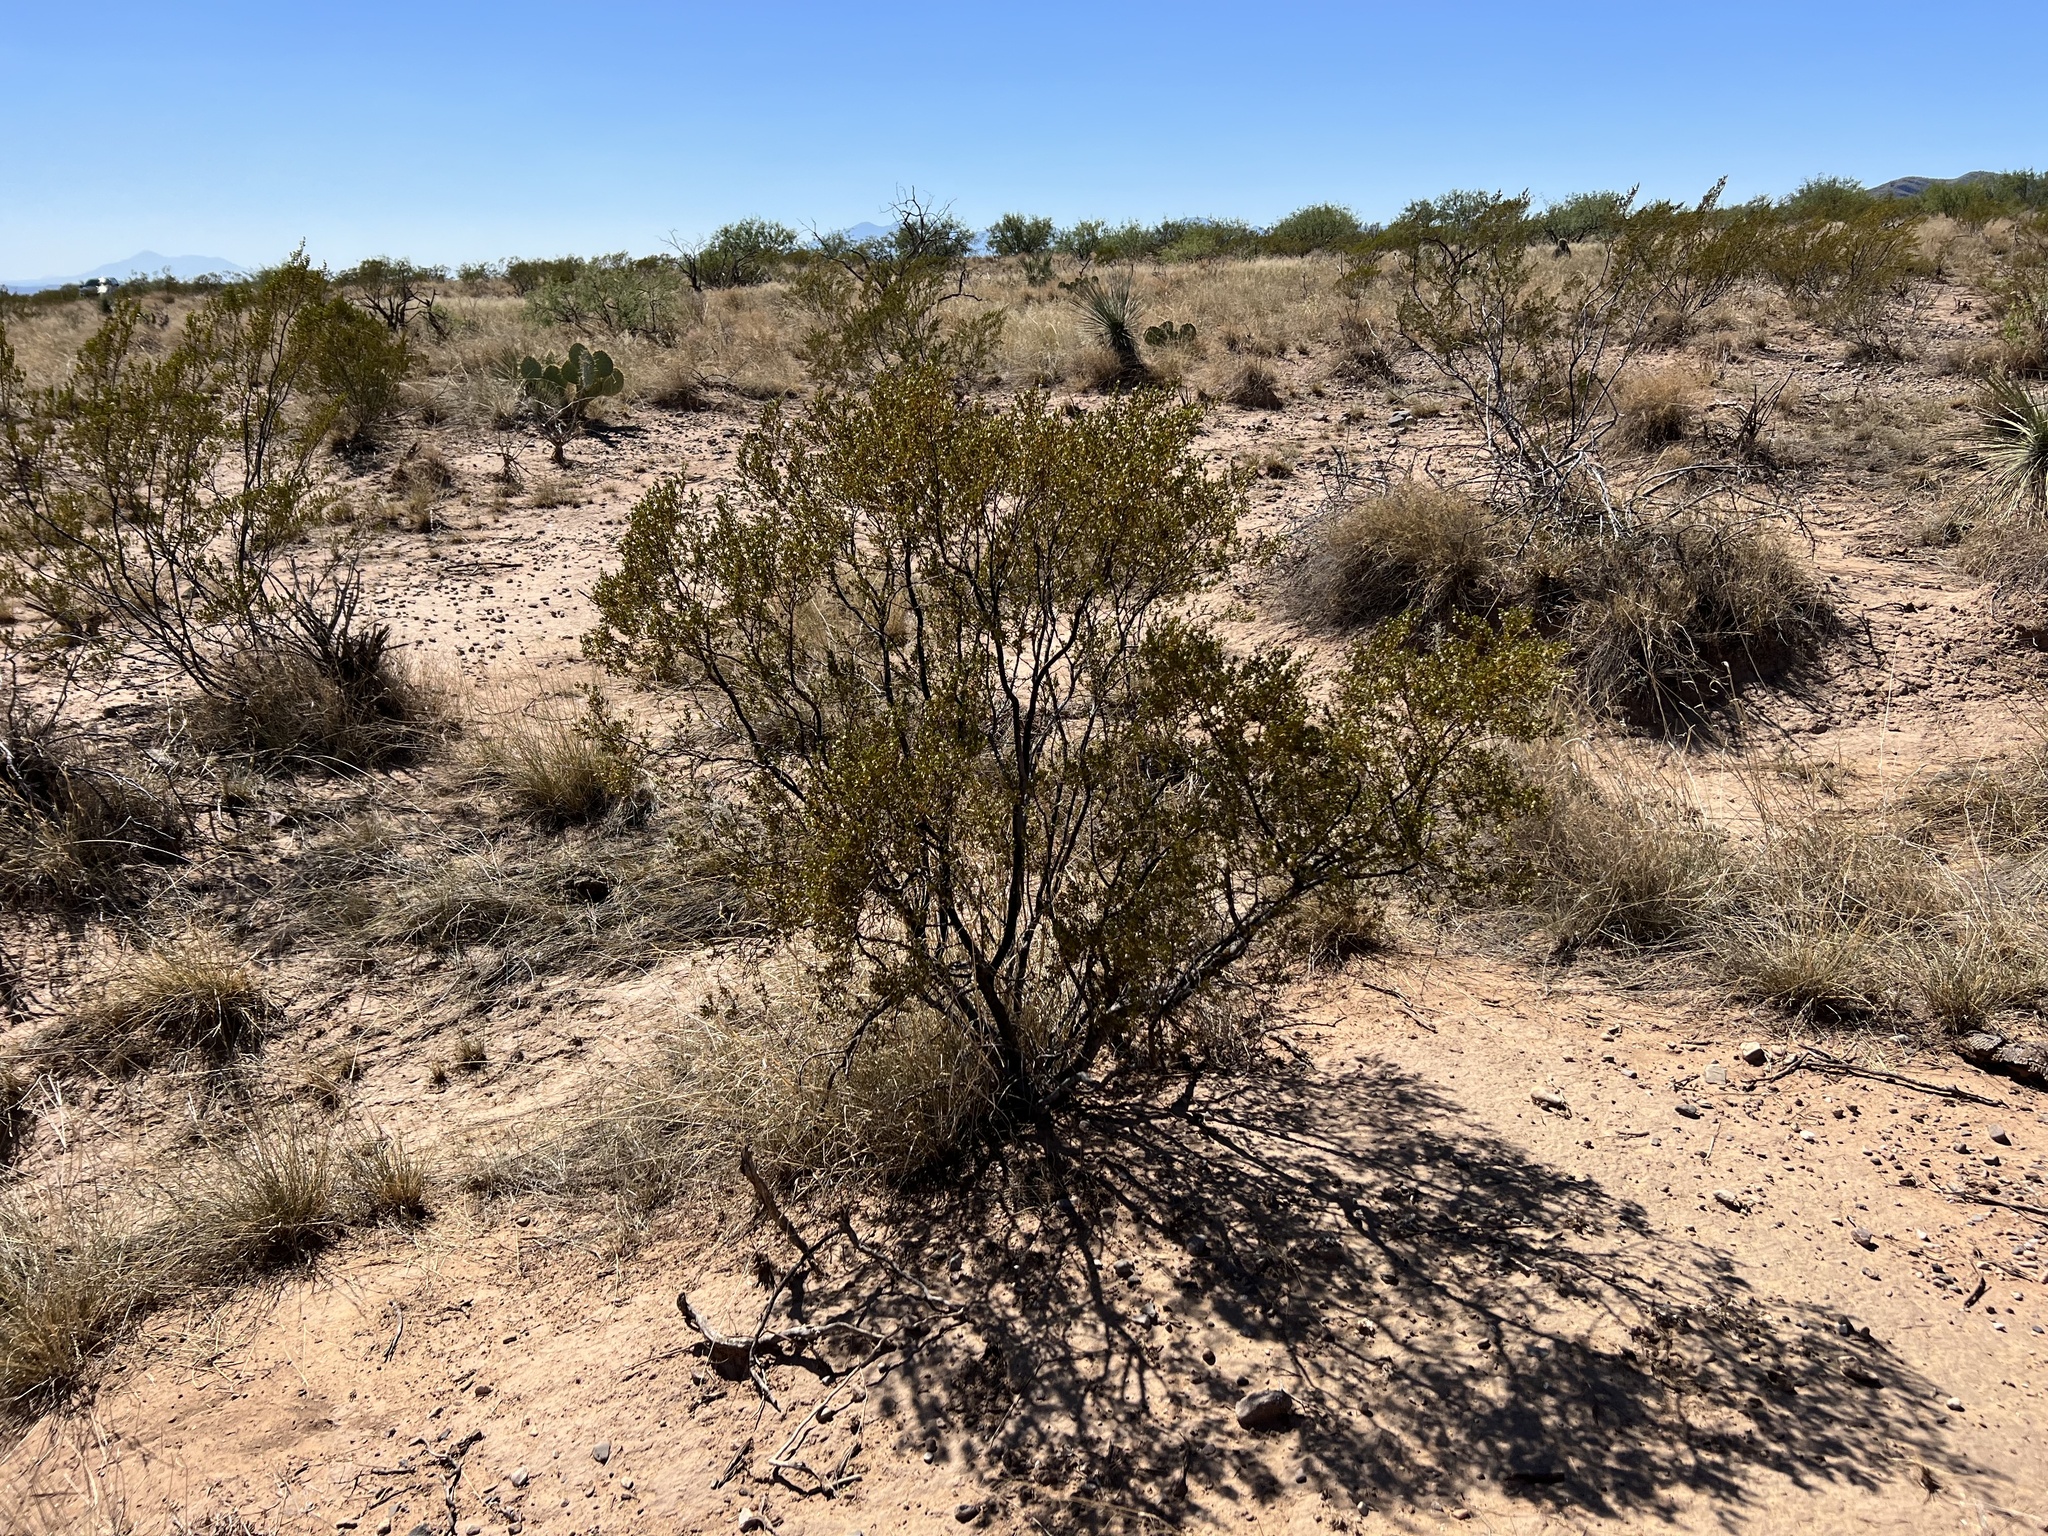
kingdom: Plantae
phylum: Tracheophyta
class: Magnoliopsida
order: Zygophyllales
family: Zygophyllaceae
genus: Larrea
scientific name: Larrea tridentata
